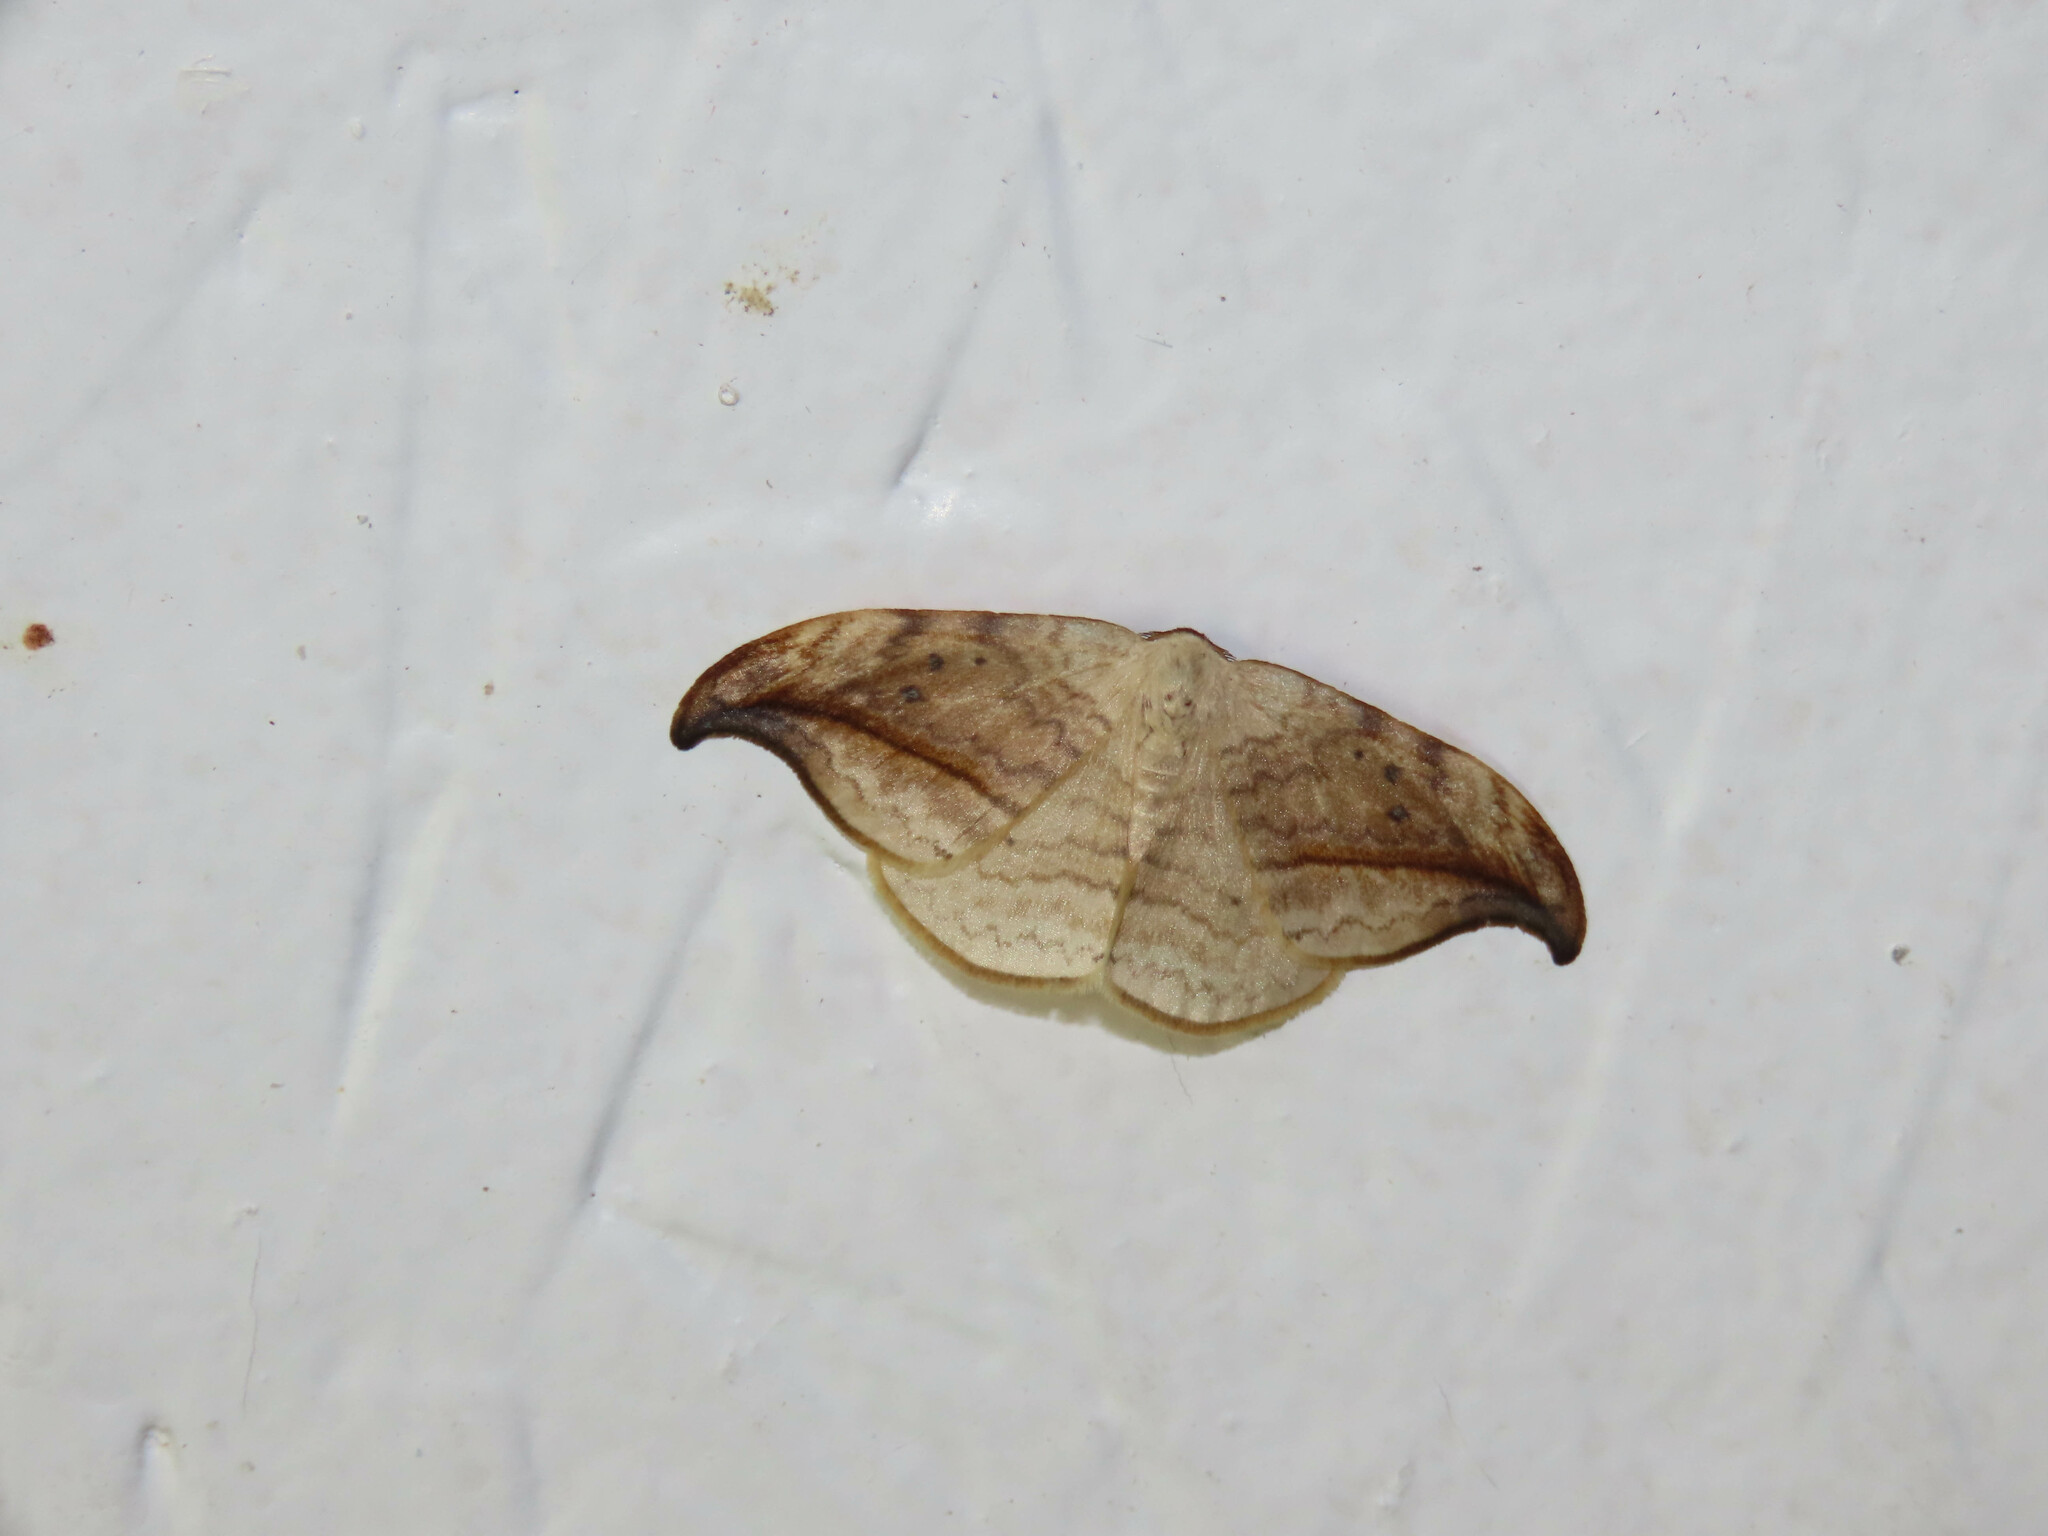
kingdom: Animalia
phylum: Arthropoda
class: Insecta
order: Lepidoptera
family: Drepanidae
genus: Drepana
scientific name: Drepana arcuata
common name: Arched hooktip moth
